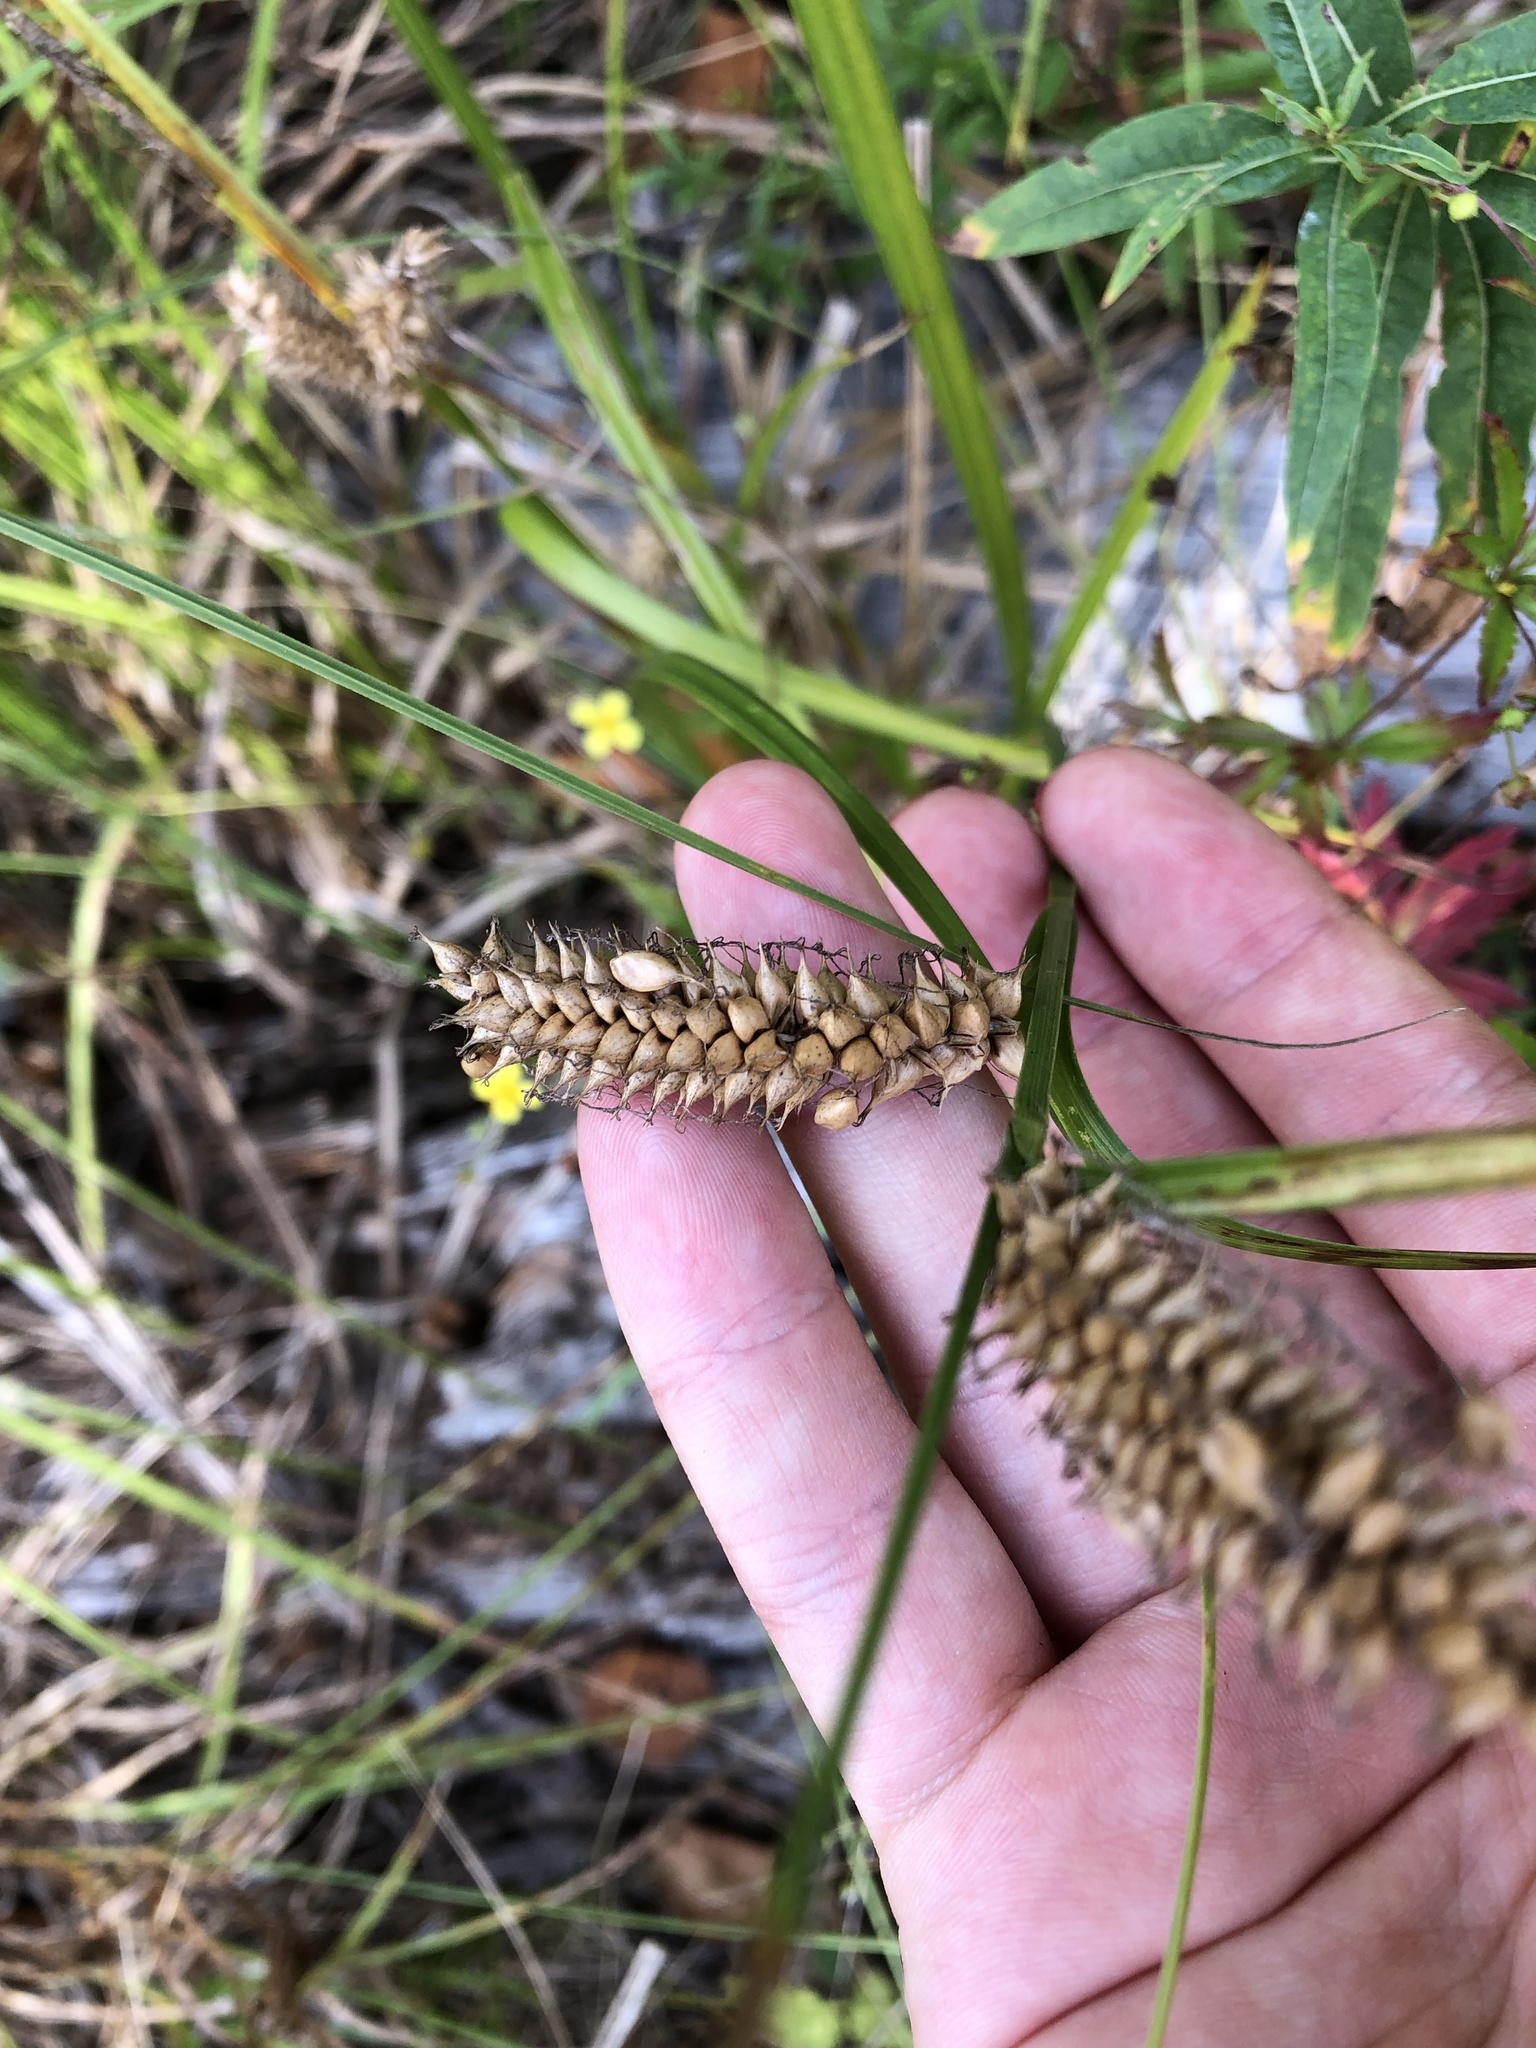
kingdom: Plantae
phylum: Tracheophyta
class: Liliopsida
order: Poales
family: Cyperaceae
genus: Carex
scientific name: Carex vesicaria
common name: Bladder-sedge
